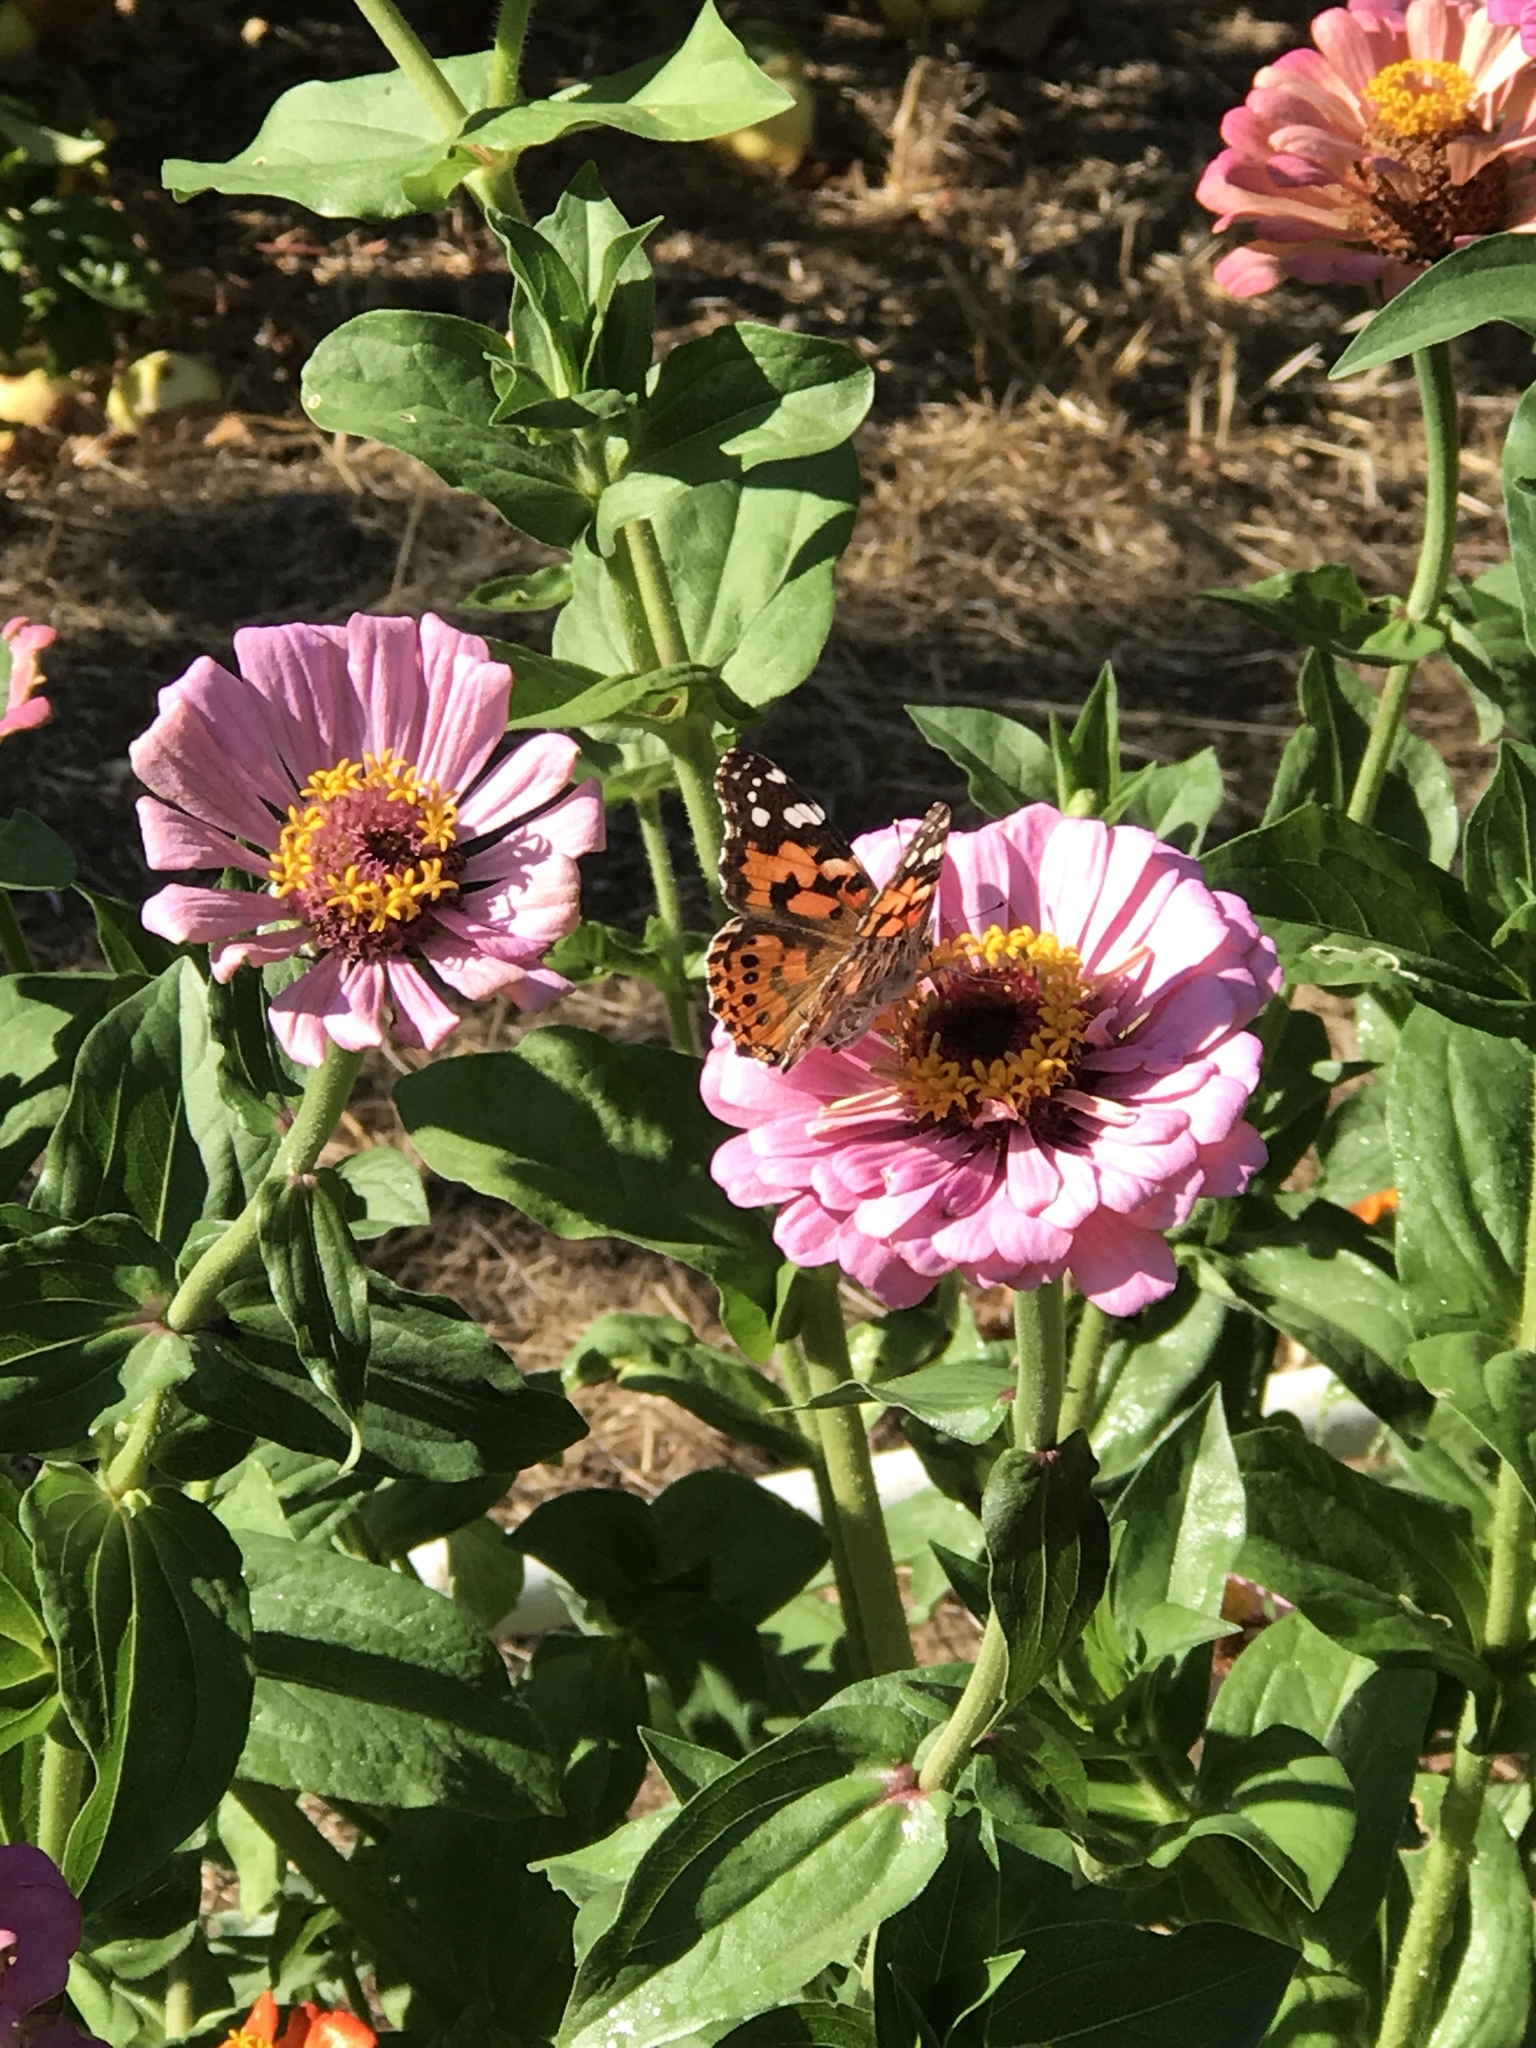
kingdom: Animalia
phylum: Arthropoda
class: Insecta
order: Lepidoptera
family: Nymphalidae
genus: Vanessa
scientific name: Vanessa cardui
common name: Painted lady
